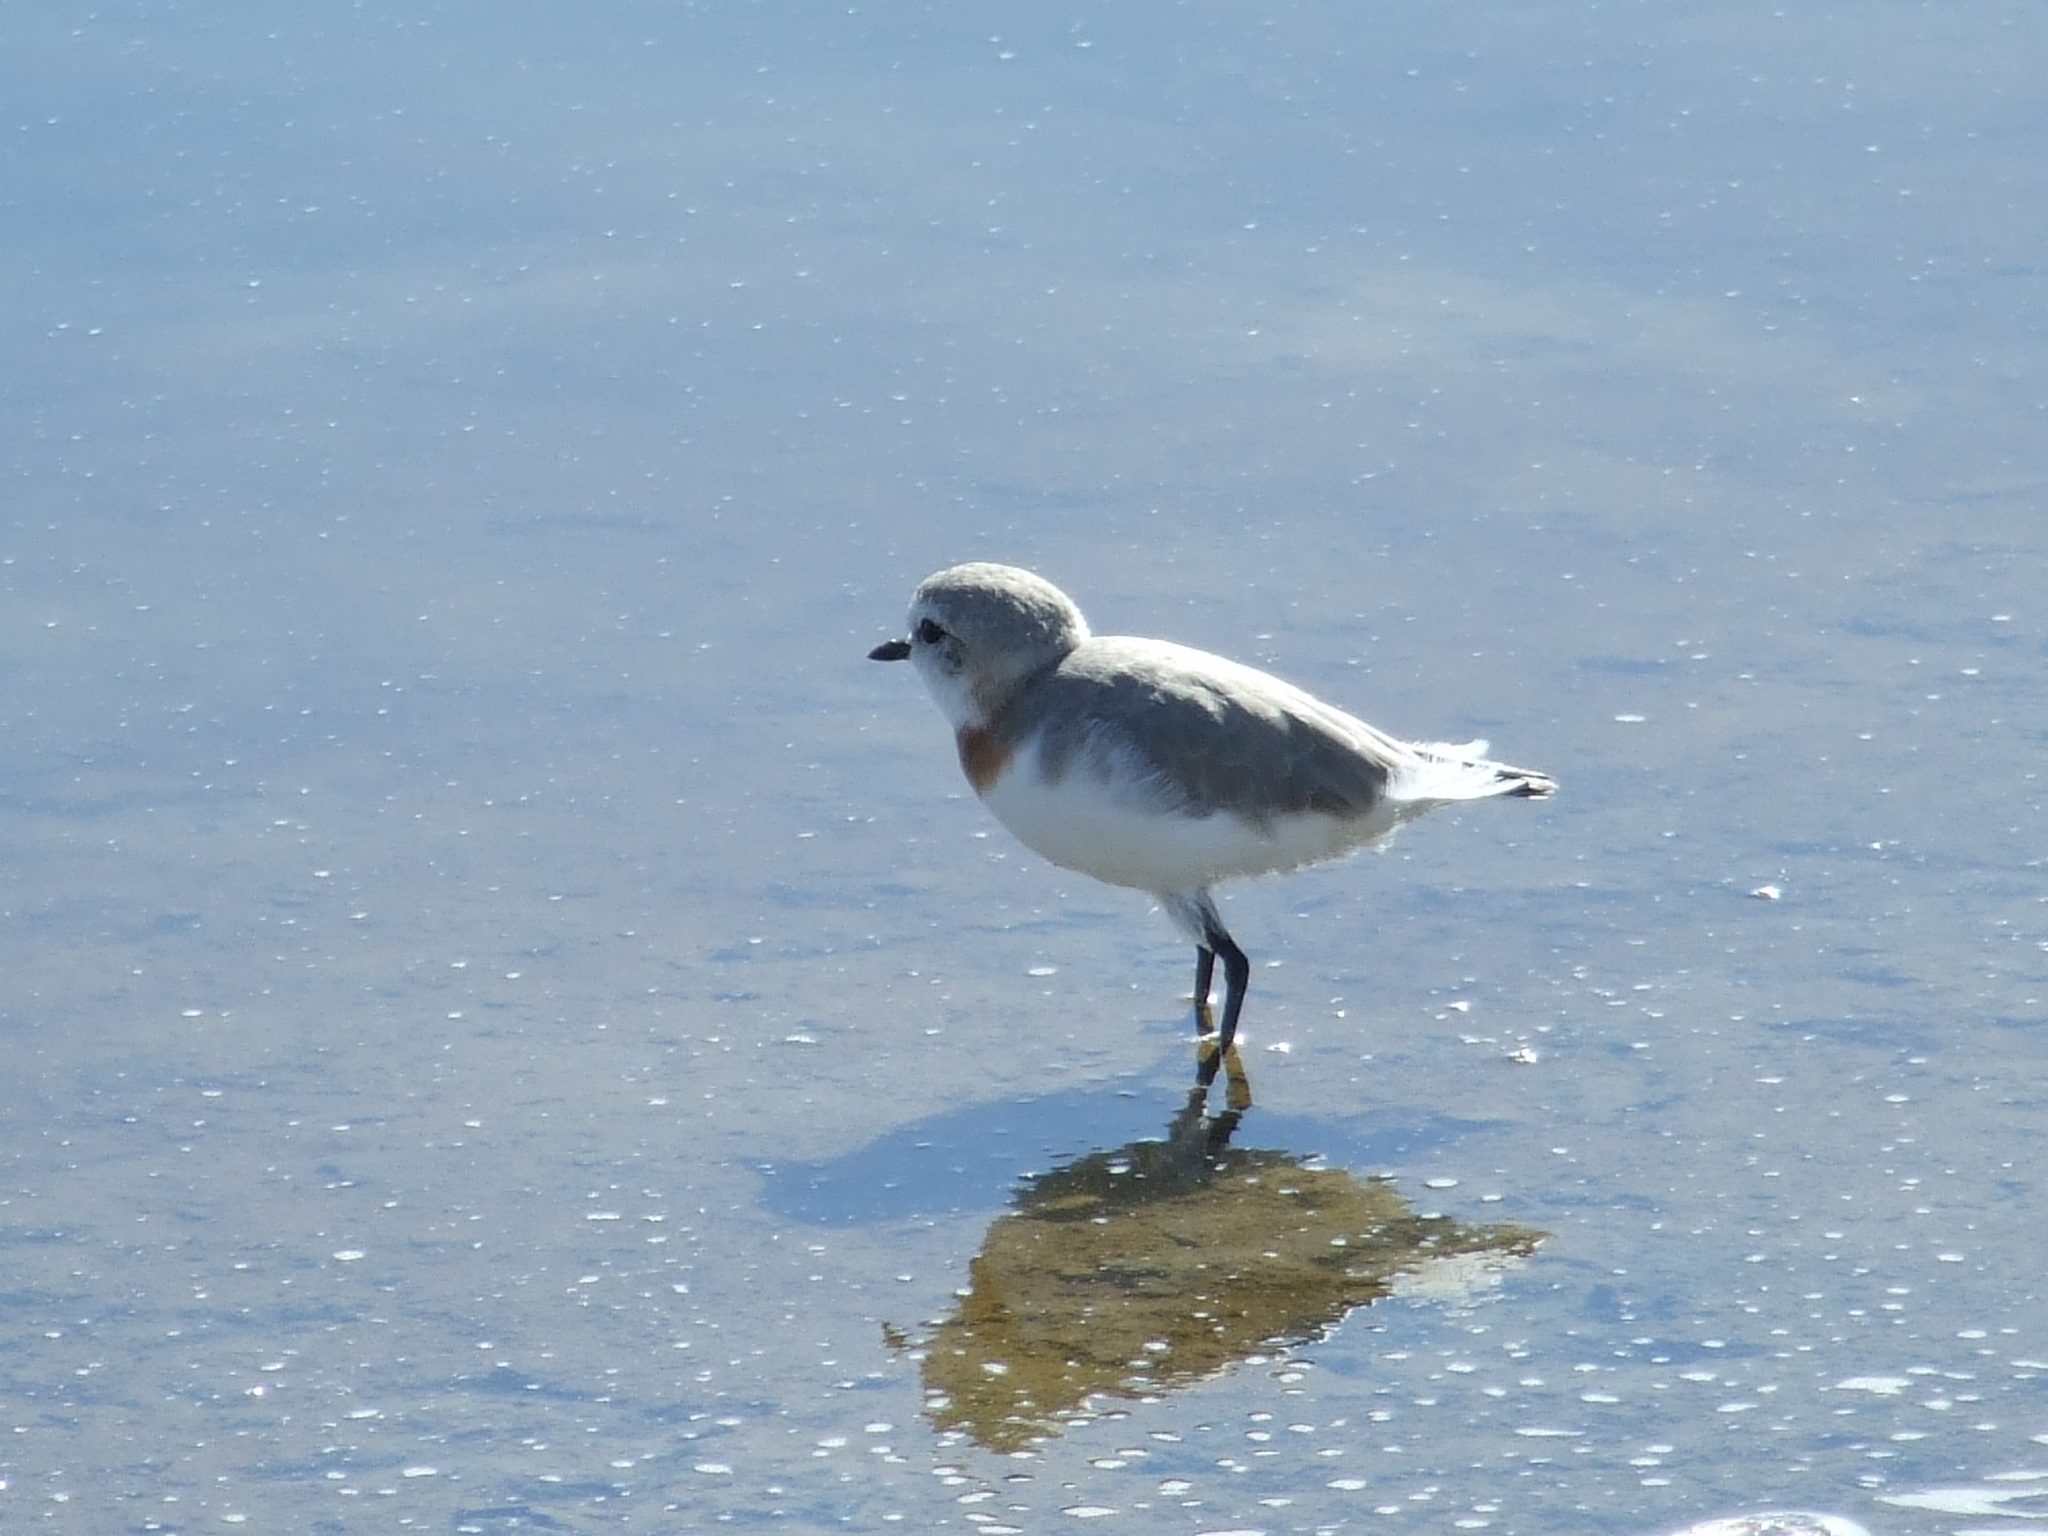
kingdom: Animalia
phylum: Chordata
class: Aves
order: Charadriiformes
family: Charadriidae
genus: Anarhynchus
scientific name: Anarhynchus
